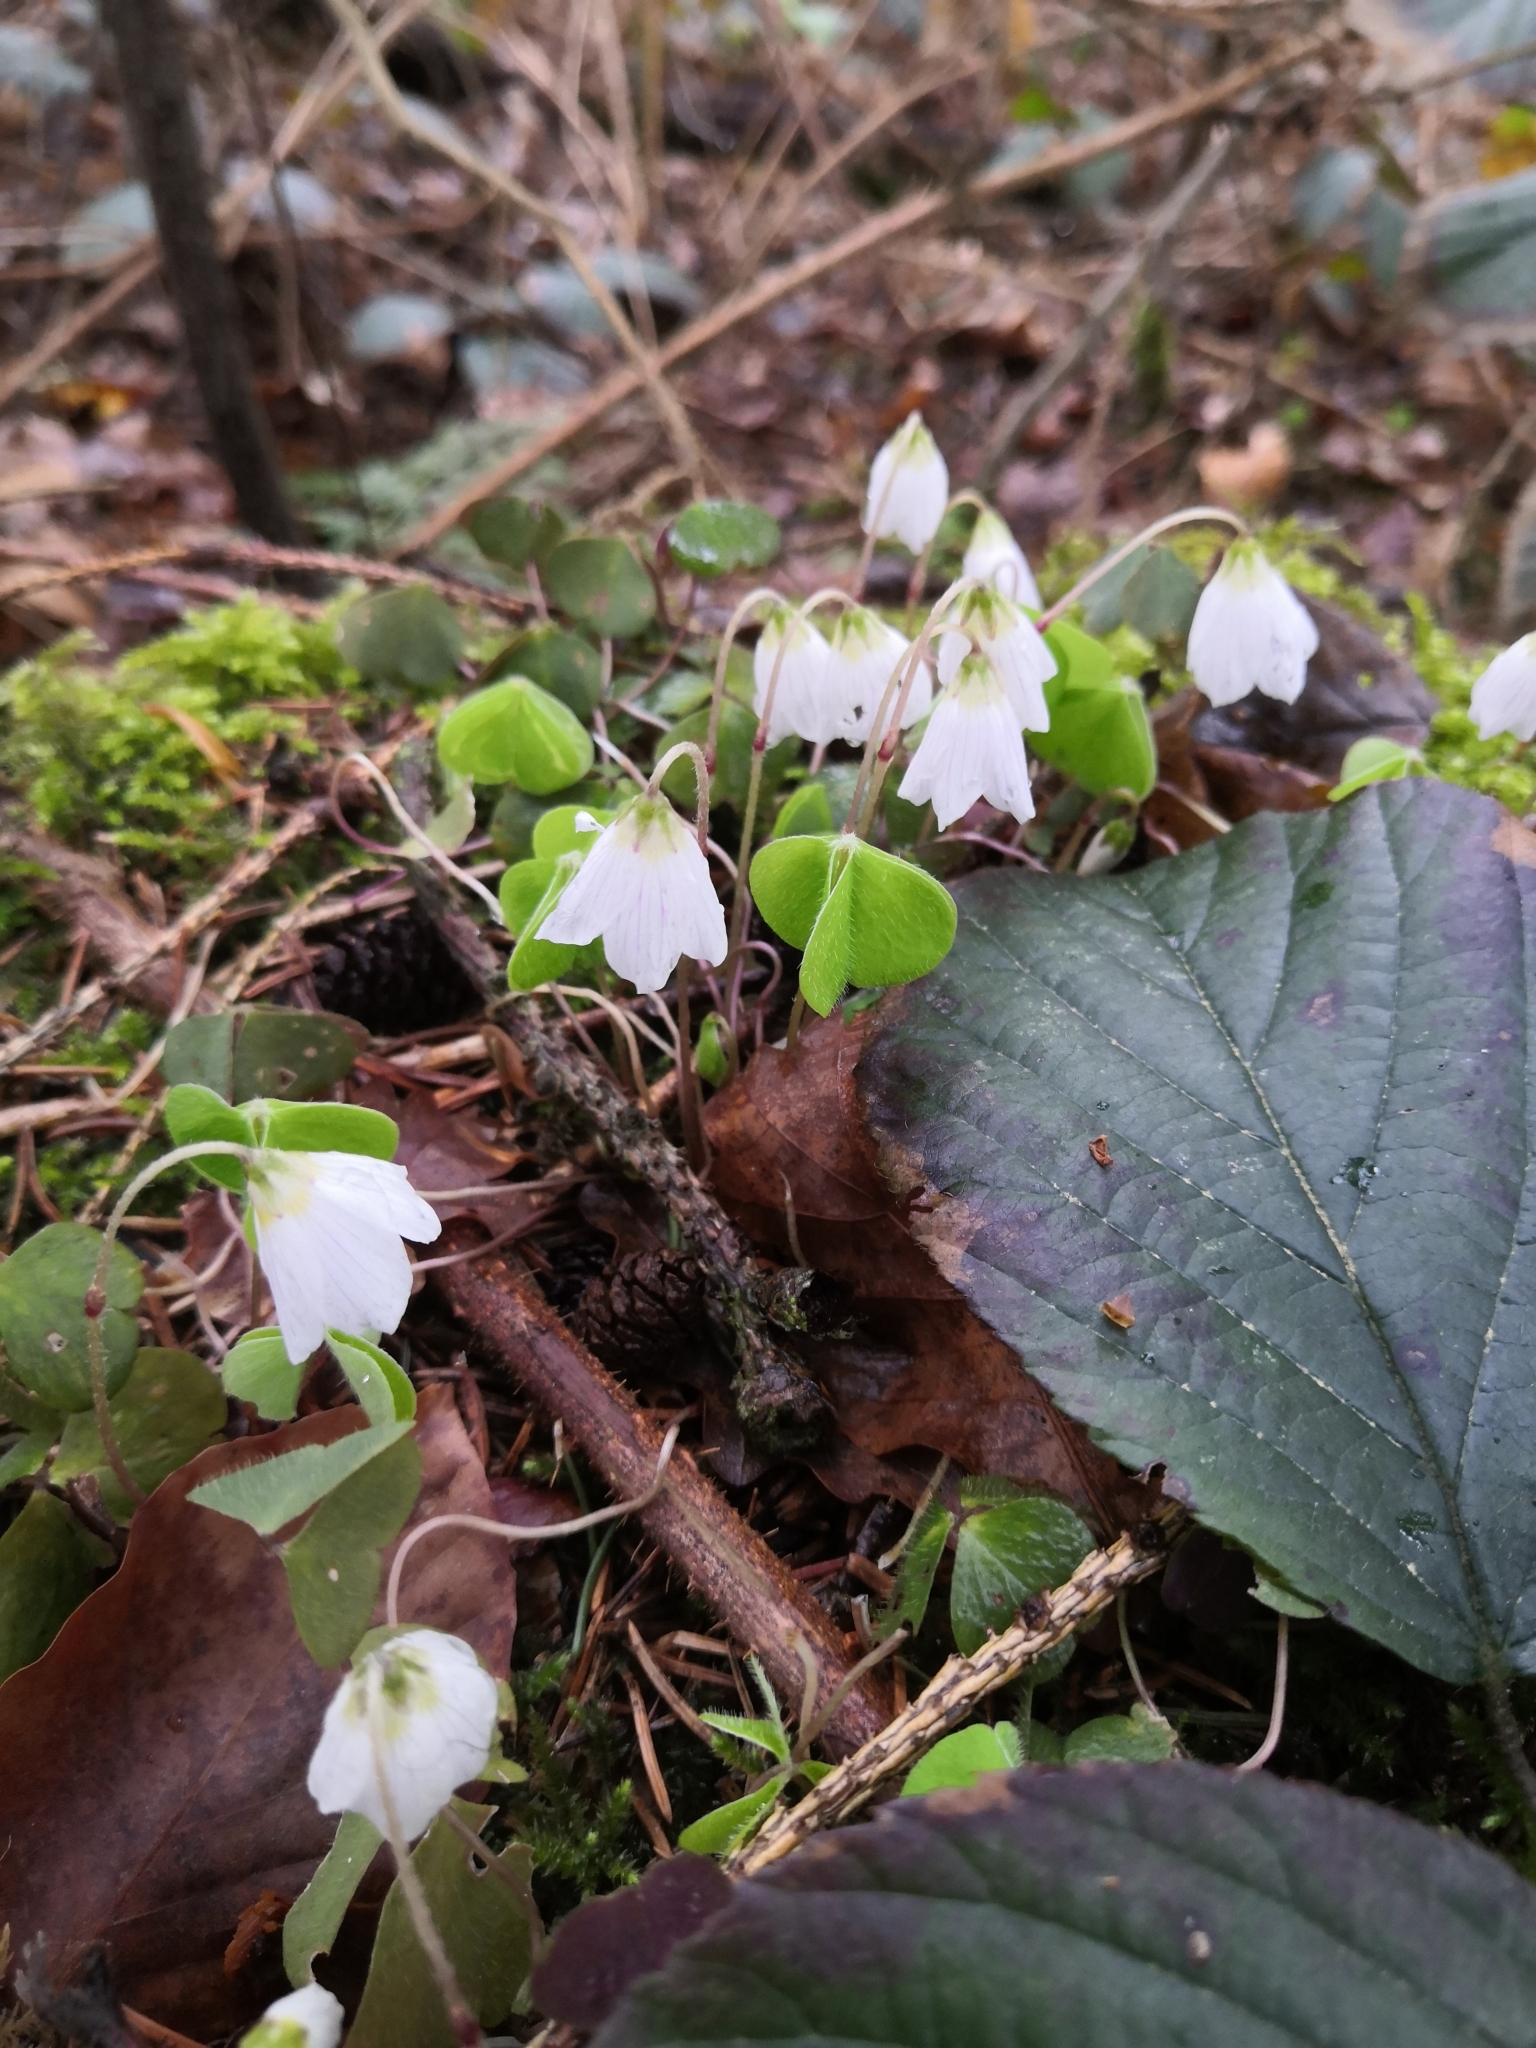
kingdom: Plantae
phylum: Tracheophyta
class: Magnoliopsida
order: Oxalidales
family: Oxalidaceae
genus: Oxalis
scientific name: Oxalis acetosella
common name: Wood-sorrel
